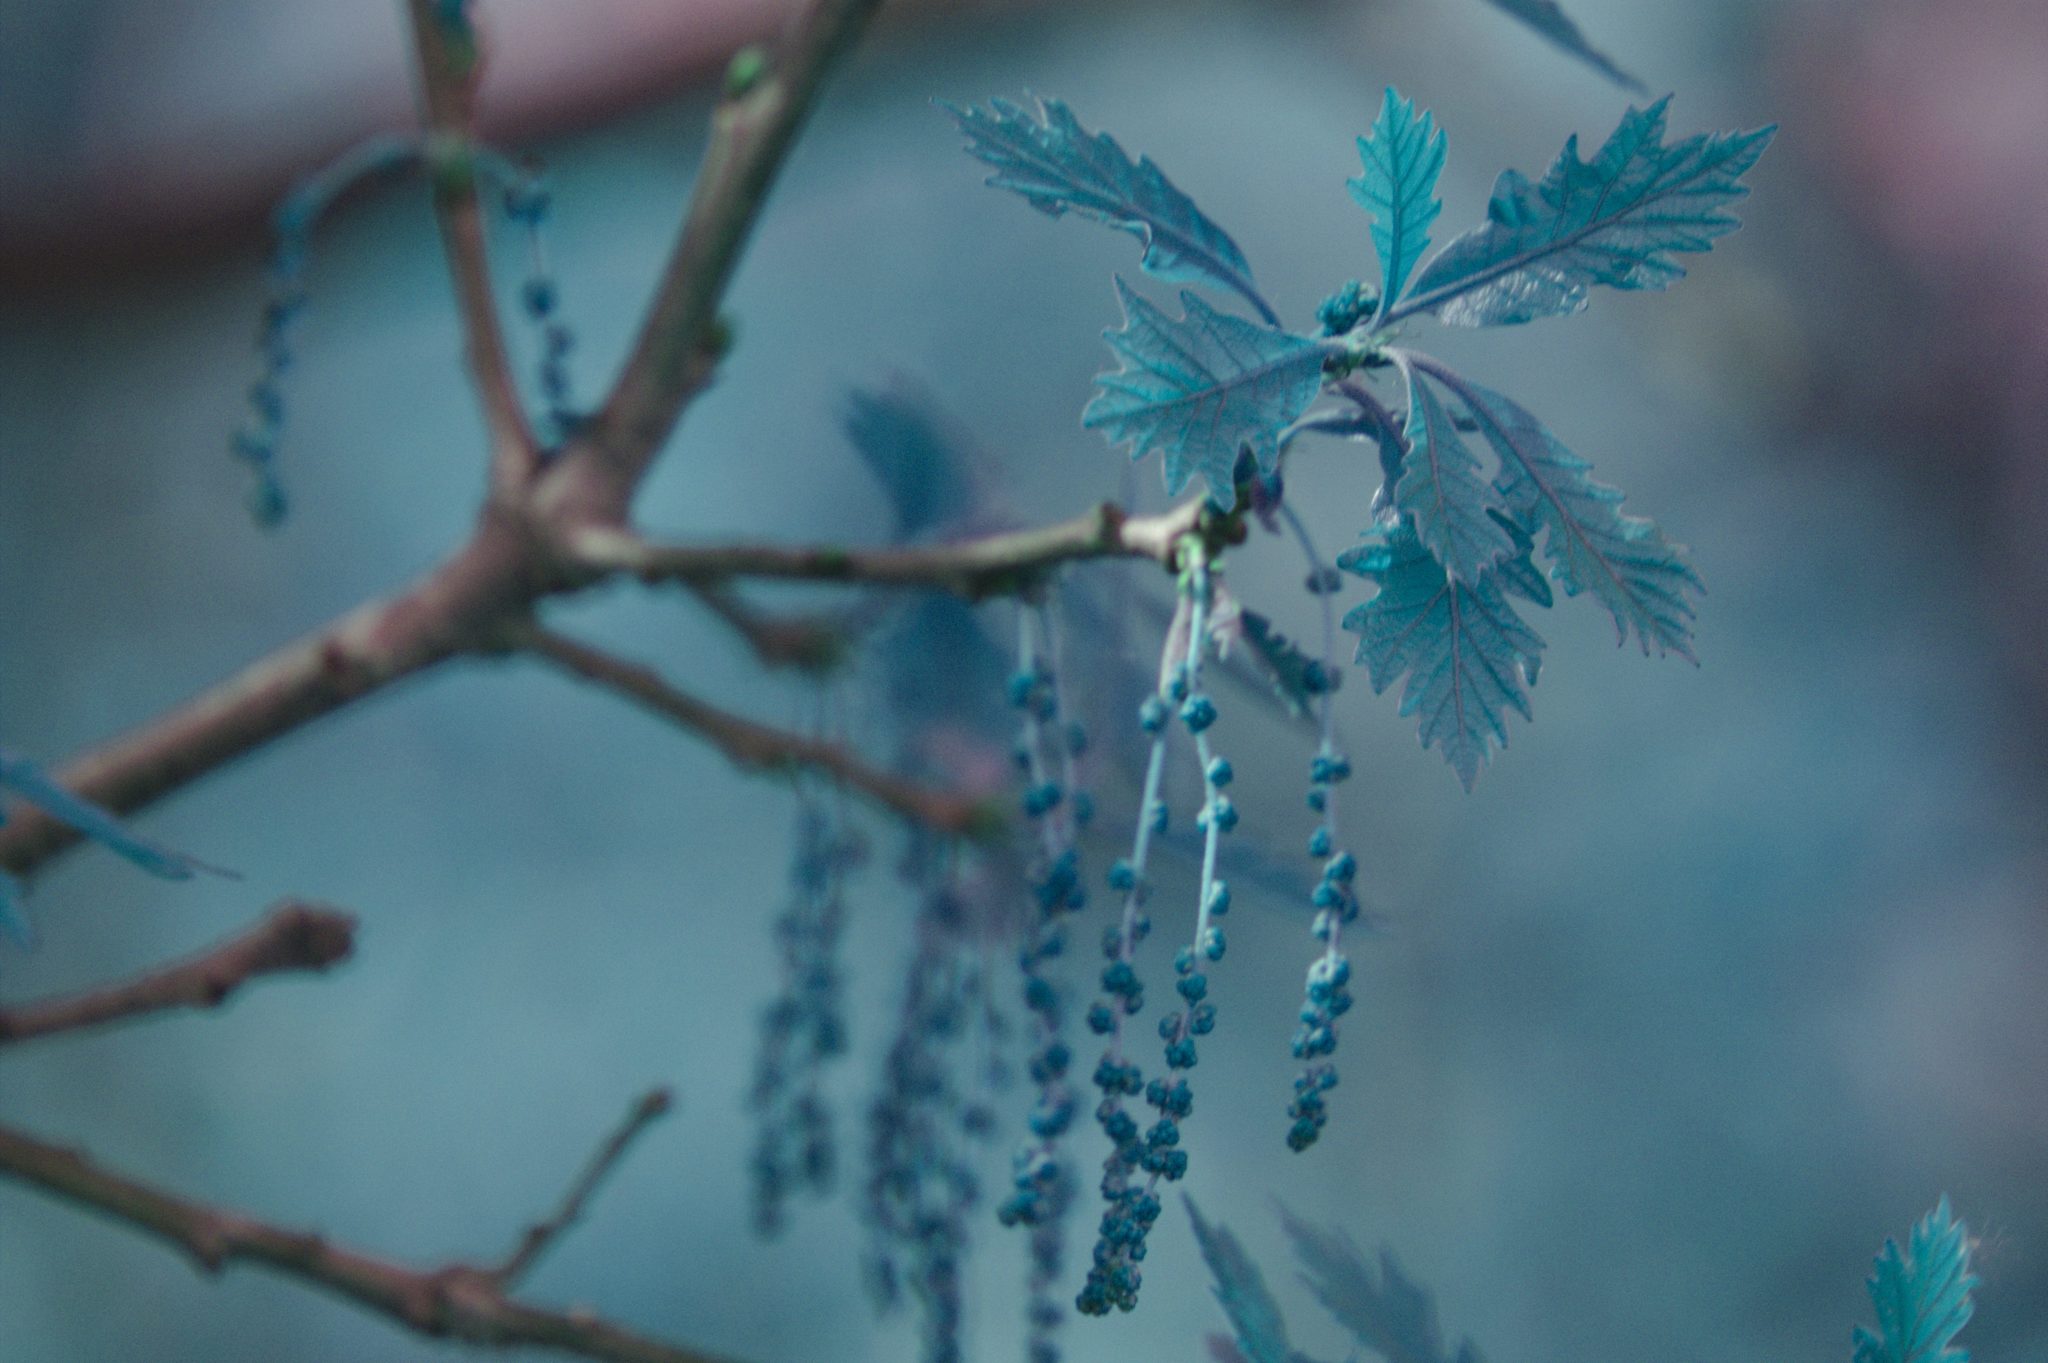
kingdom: Plantae
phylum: Tracheophyta
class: Magnoliopsida
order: Fagales
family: Fagaceae
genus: Quercus
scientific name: Quercus macrocarpa
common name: Bur oak
